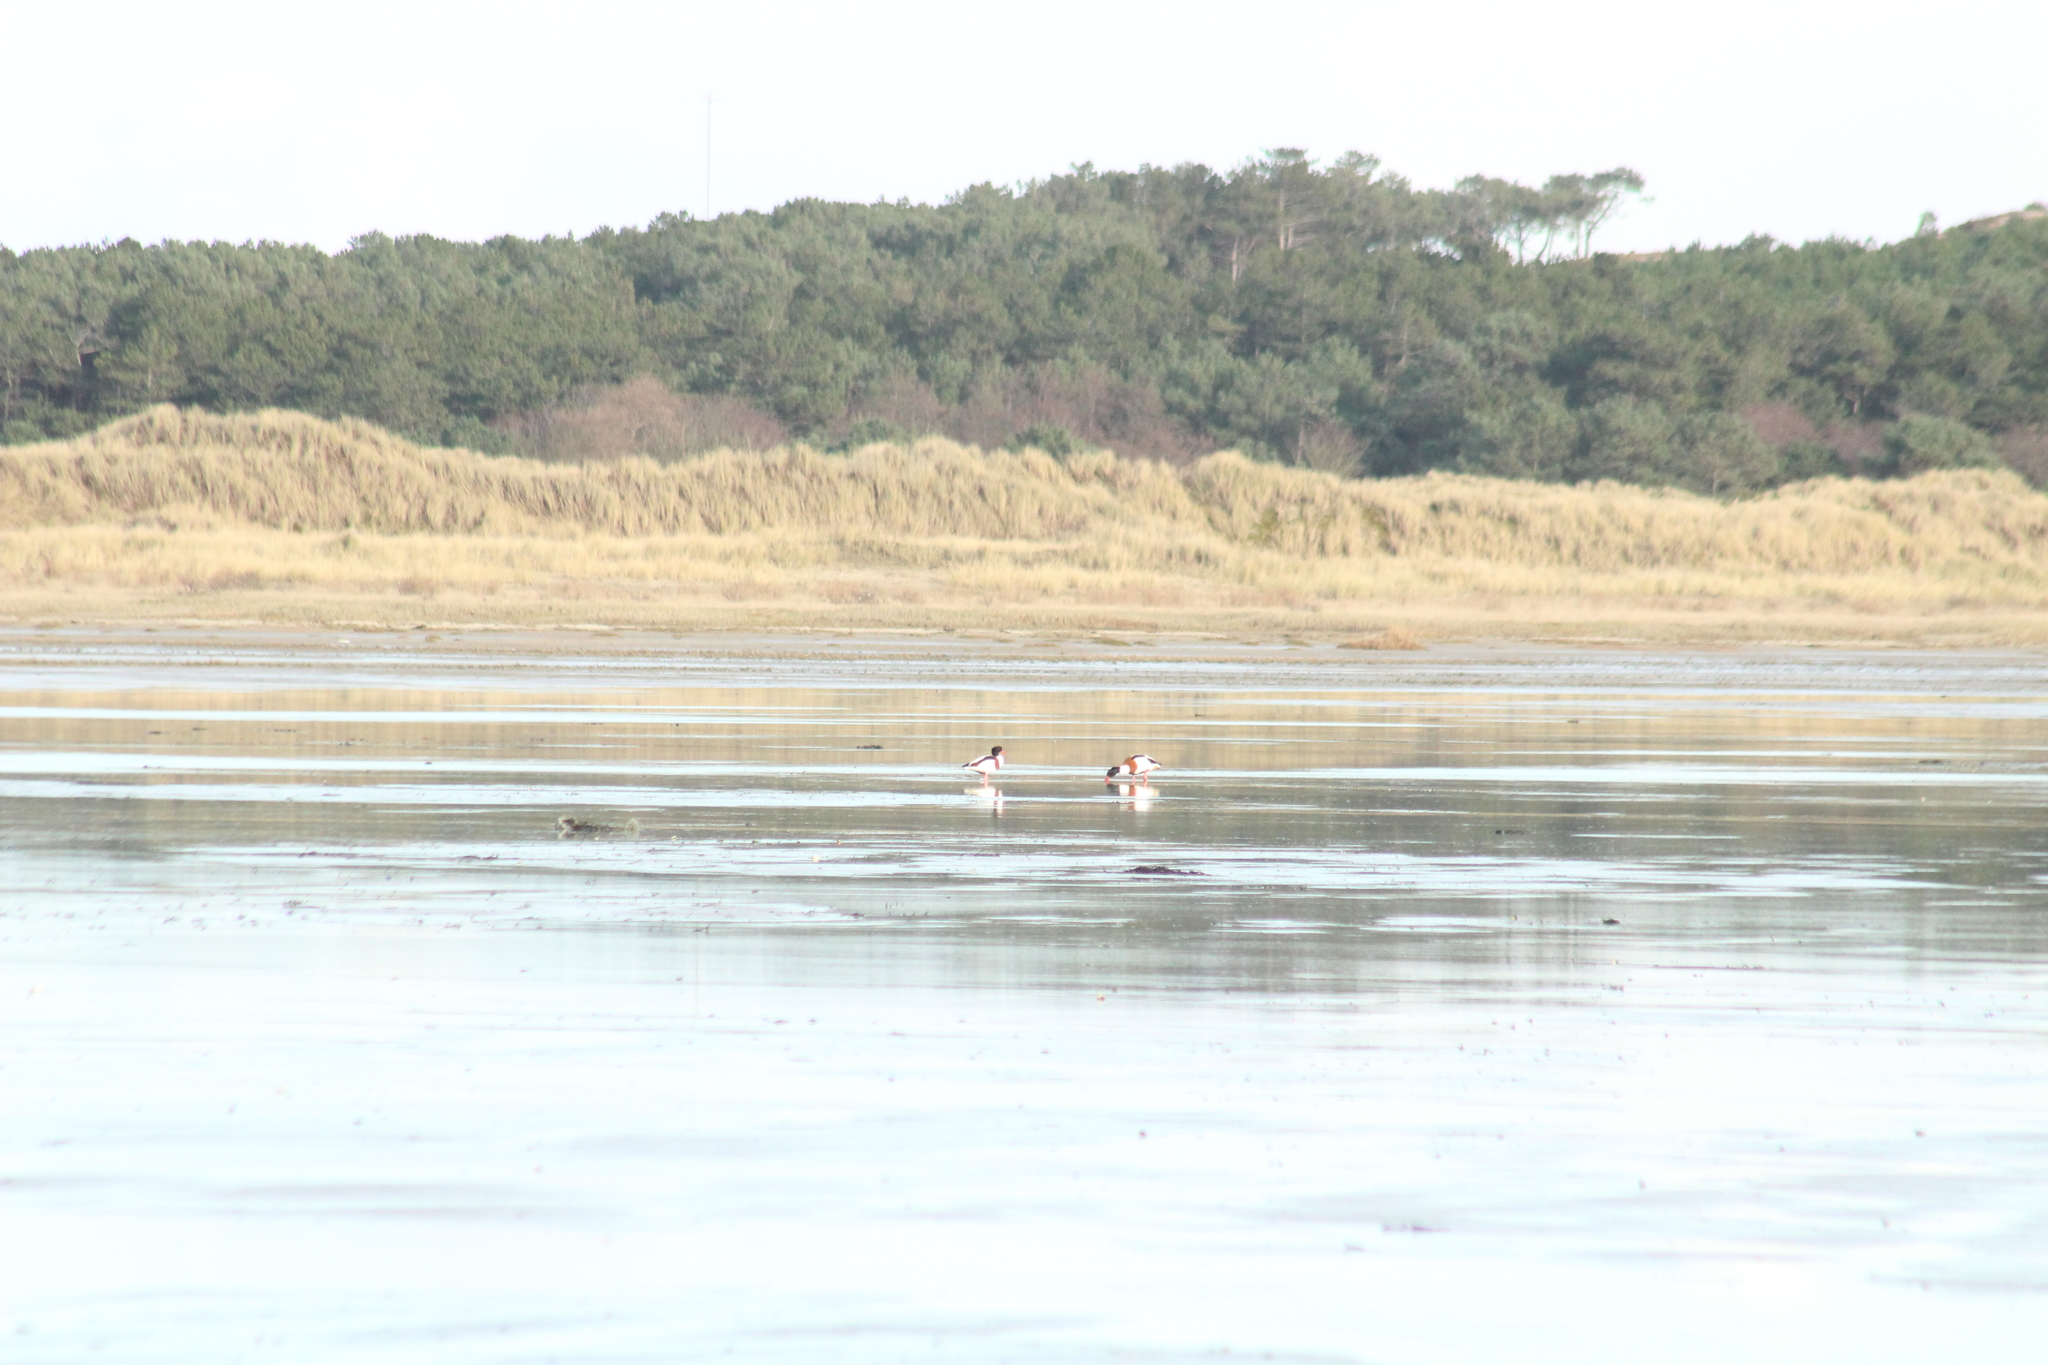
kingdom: Animalia
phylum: Chordata
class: Aves
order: Anseriformes
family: Anatidae
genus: Tadorna
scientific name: Tadorna tadorna
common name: Common shelduck
